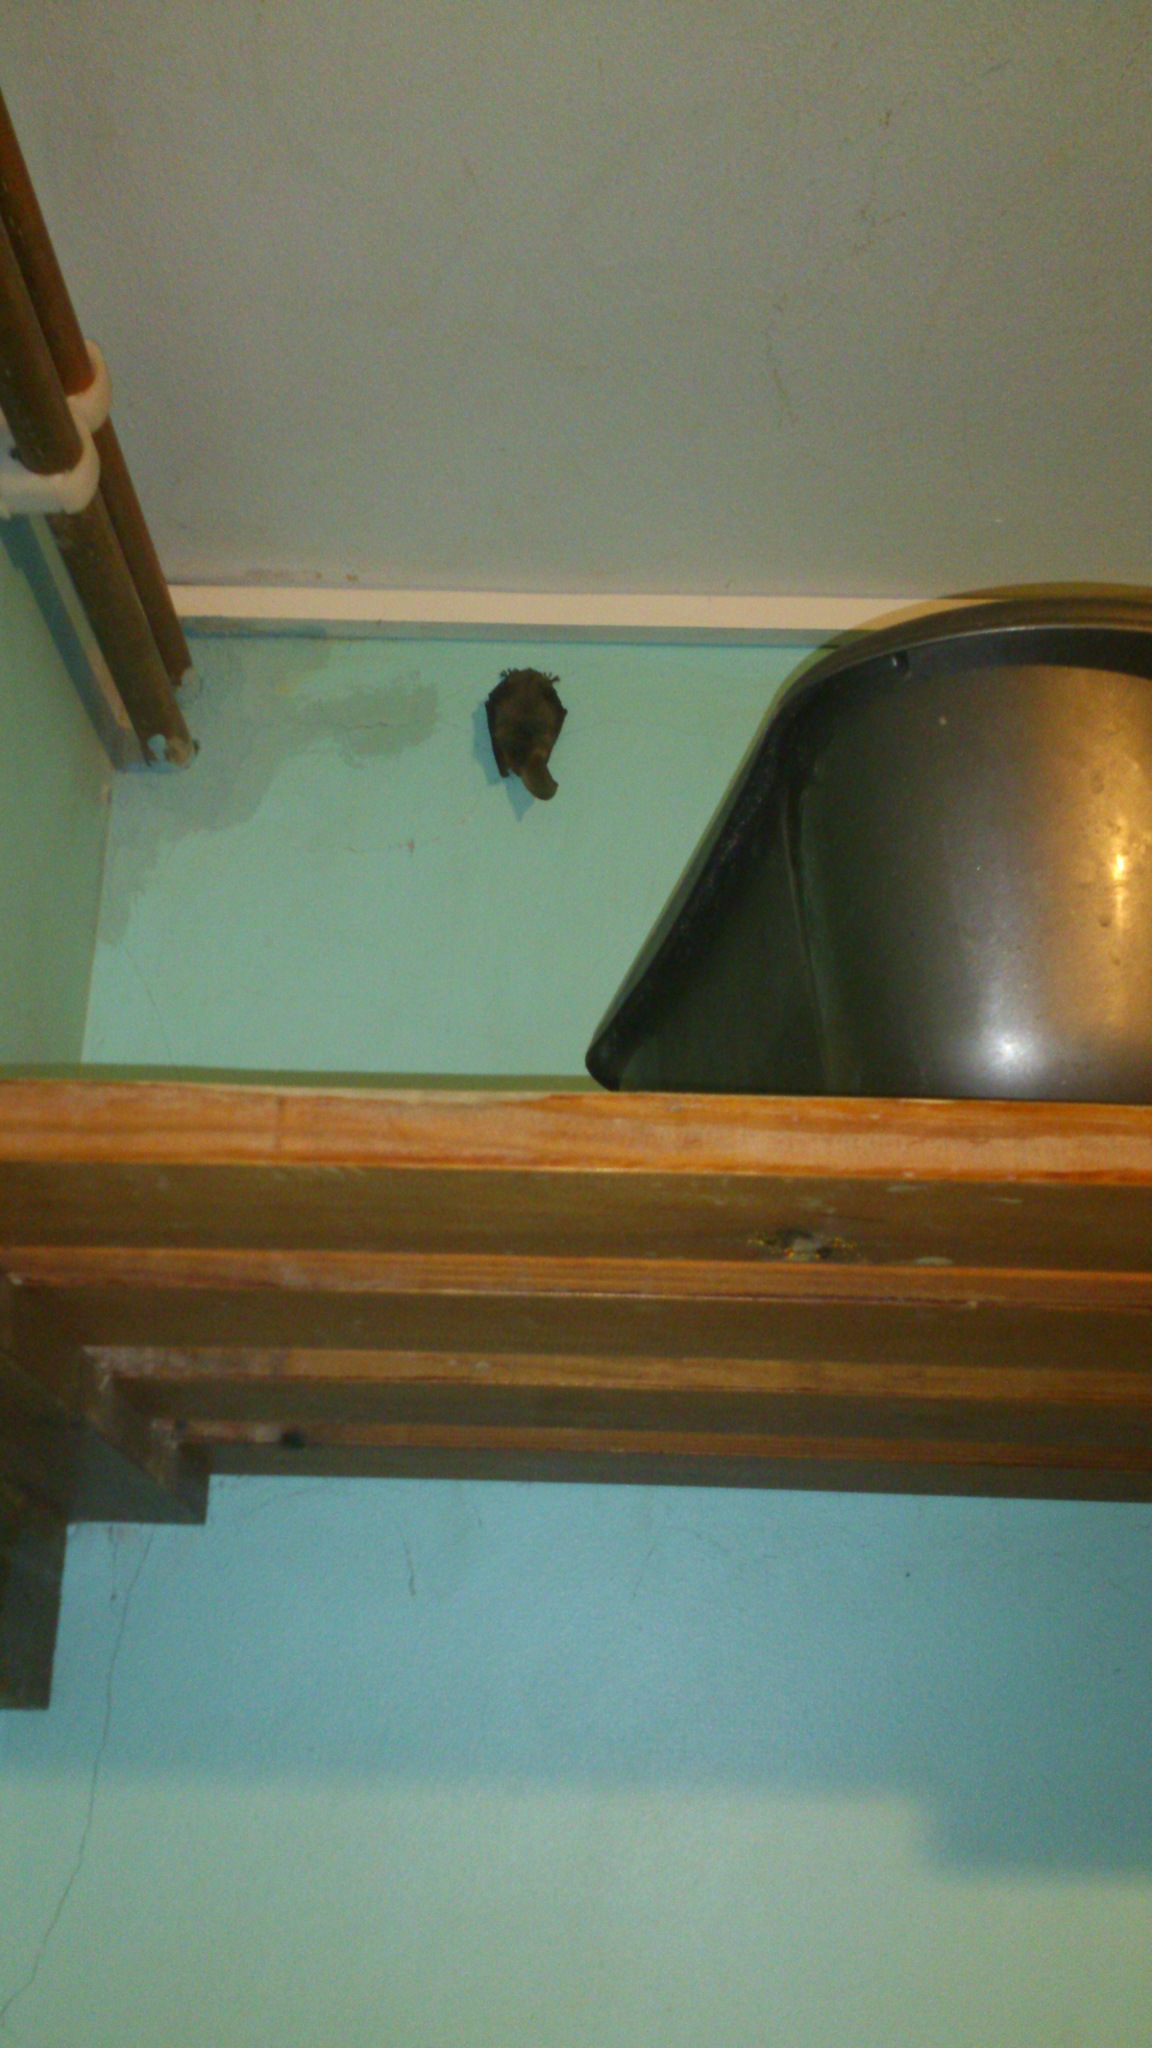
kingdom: Animalia
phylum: Chordata
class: Mammalia
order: Chiroptera
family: Vespertilionidae
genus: Plecotus
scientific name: Plecotus auritus
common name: Brown long-eared bat
